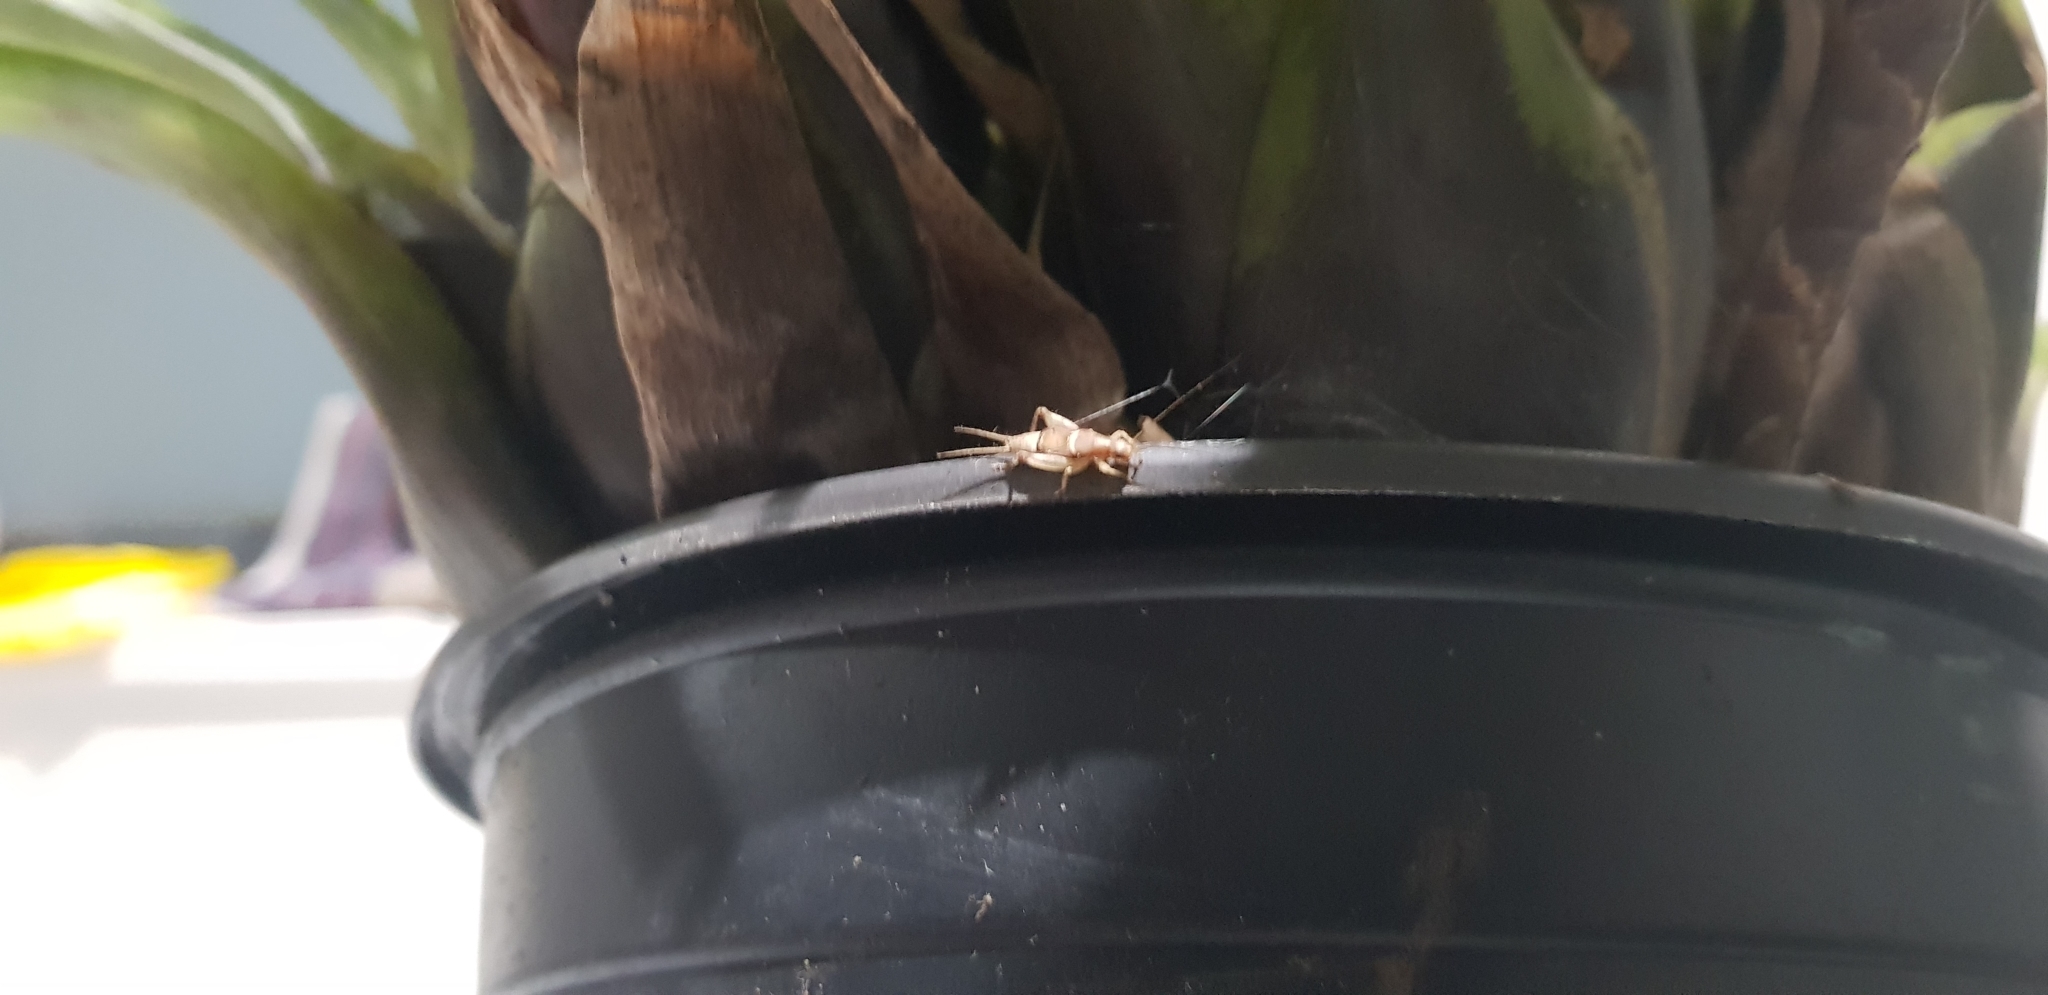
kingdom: Animalia
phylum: Arthropoda
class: Insecta
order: Orthoptera
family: Mogoplistidae
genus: Ornebius
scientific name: Ornebius aperta
